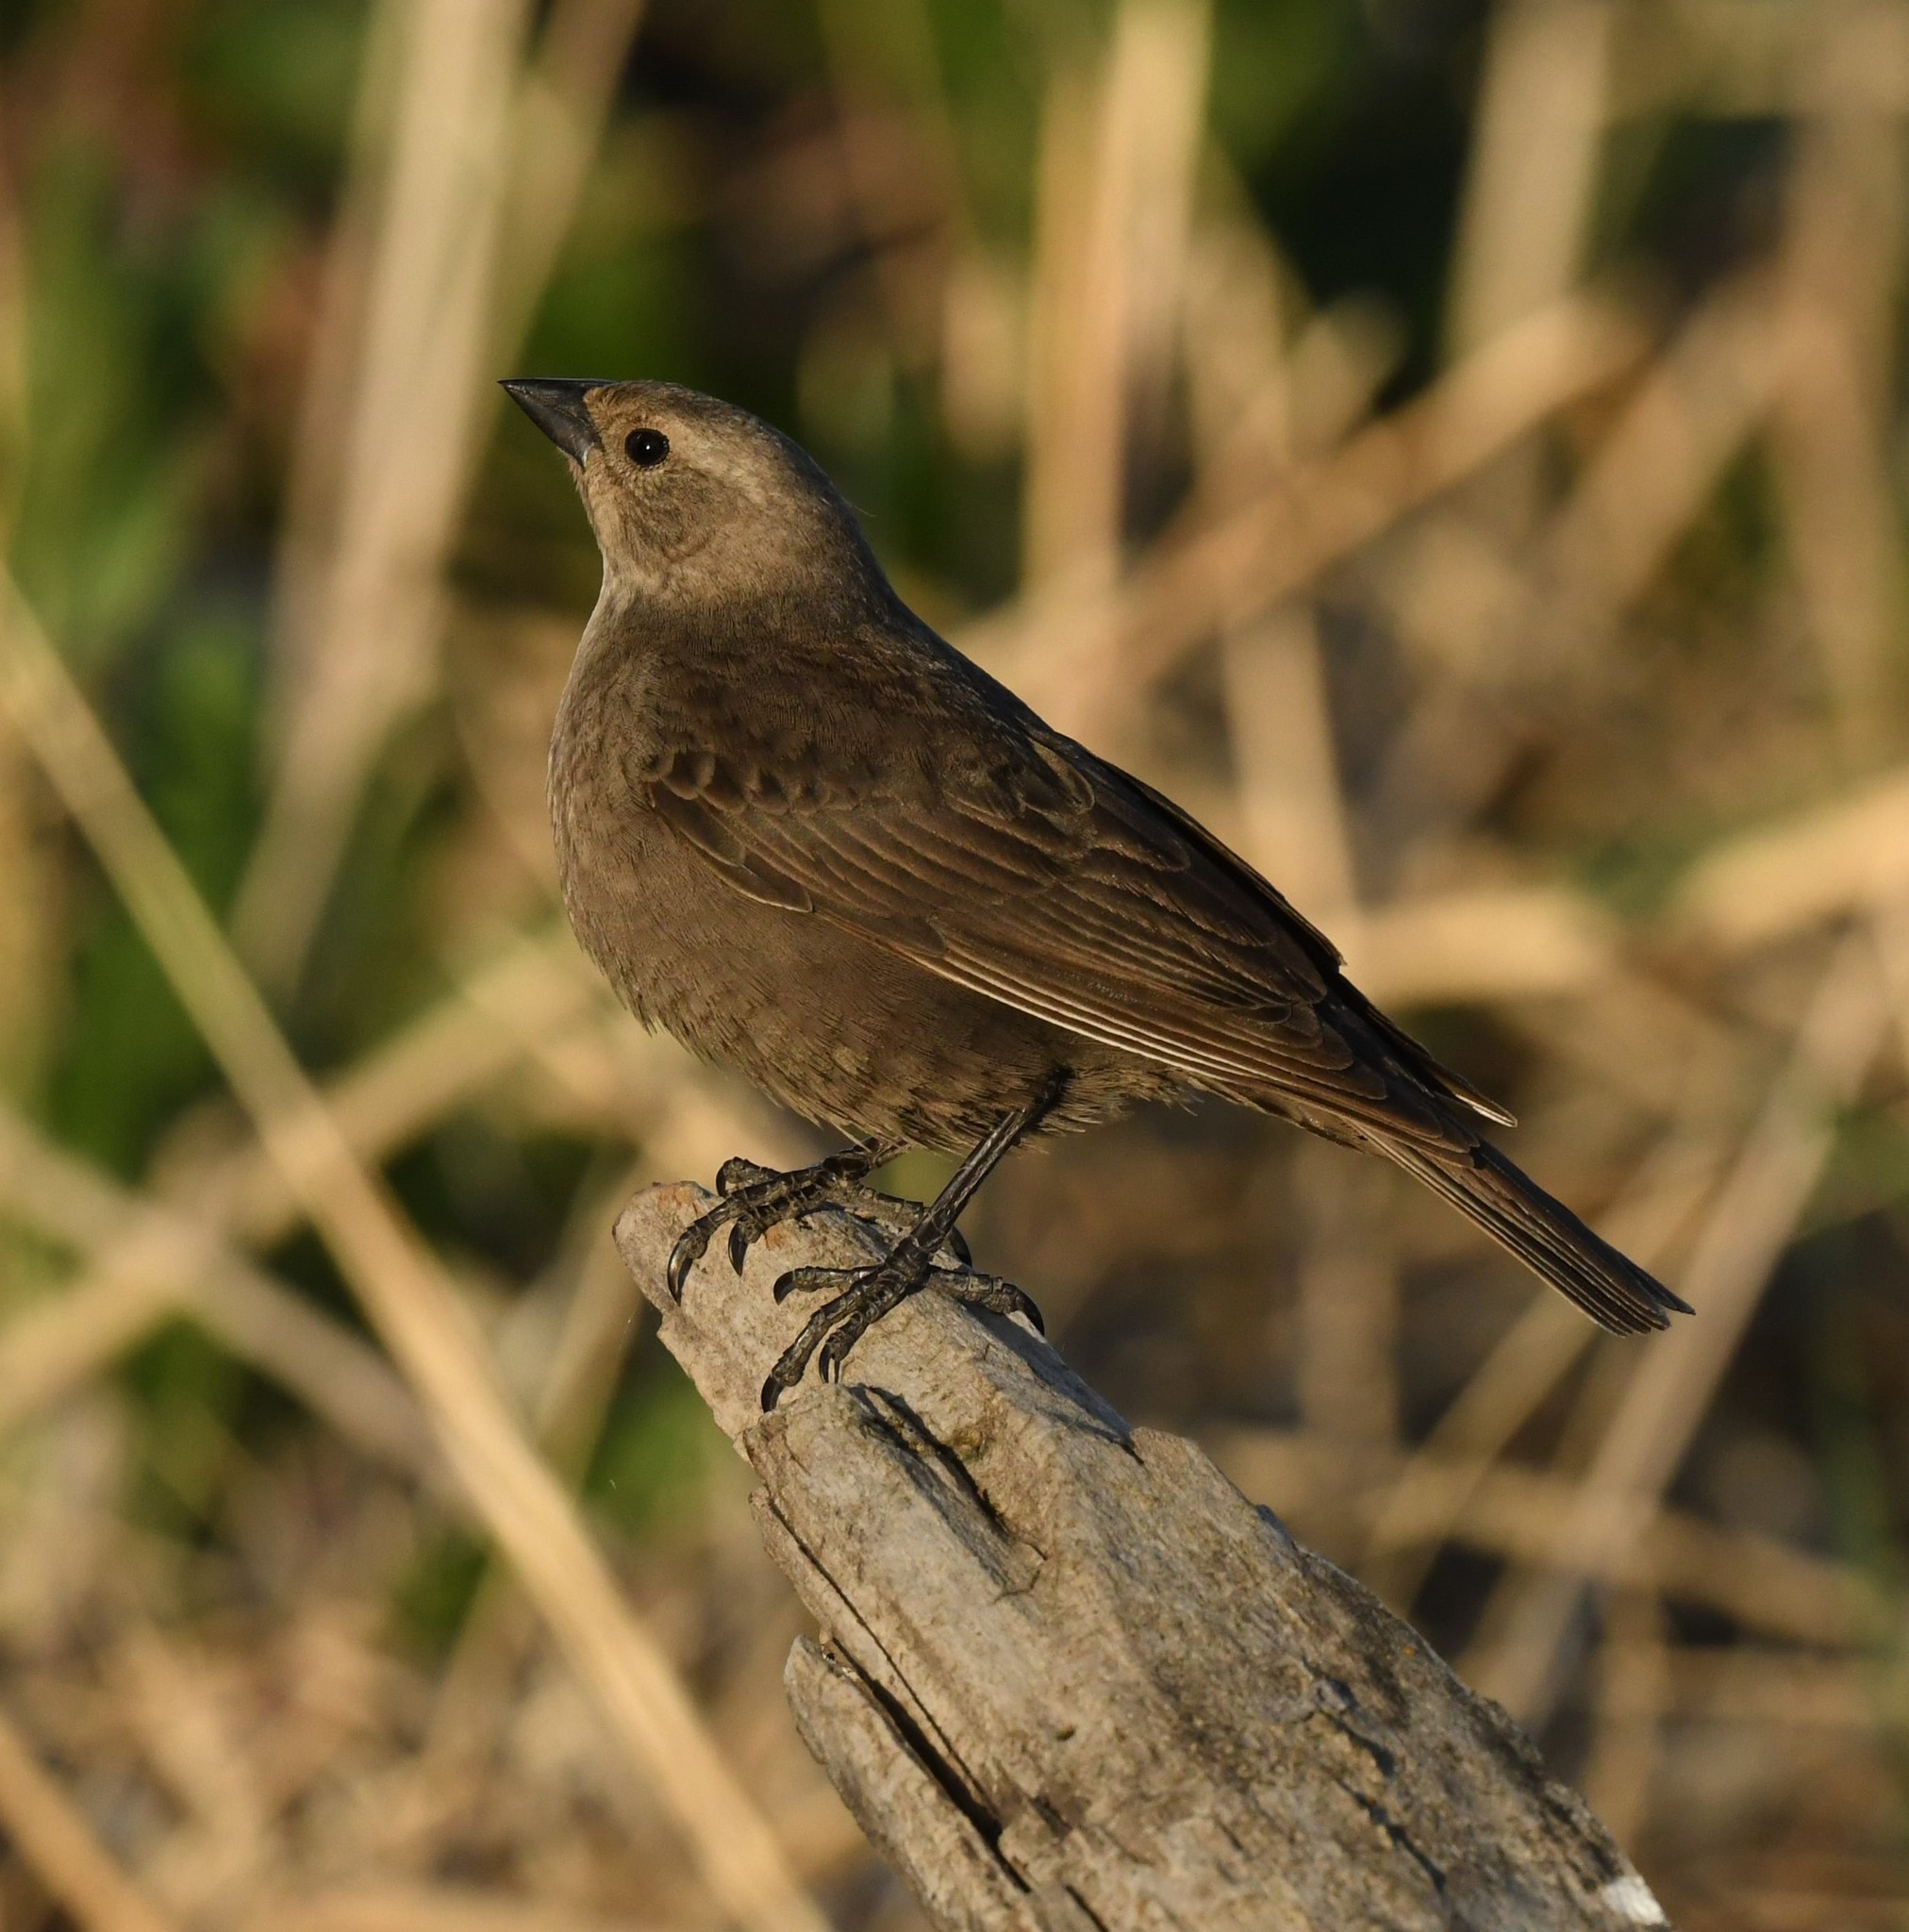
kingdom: Animalia
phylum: Chordata
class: Aves
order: Passeriformes
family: Icteridae
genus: Molothrus
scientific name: Molothrus ater
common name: Brown-headed cowbird
